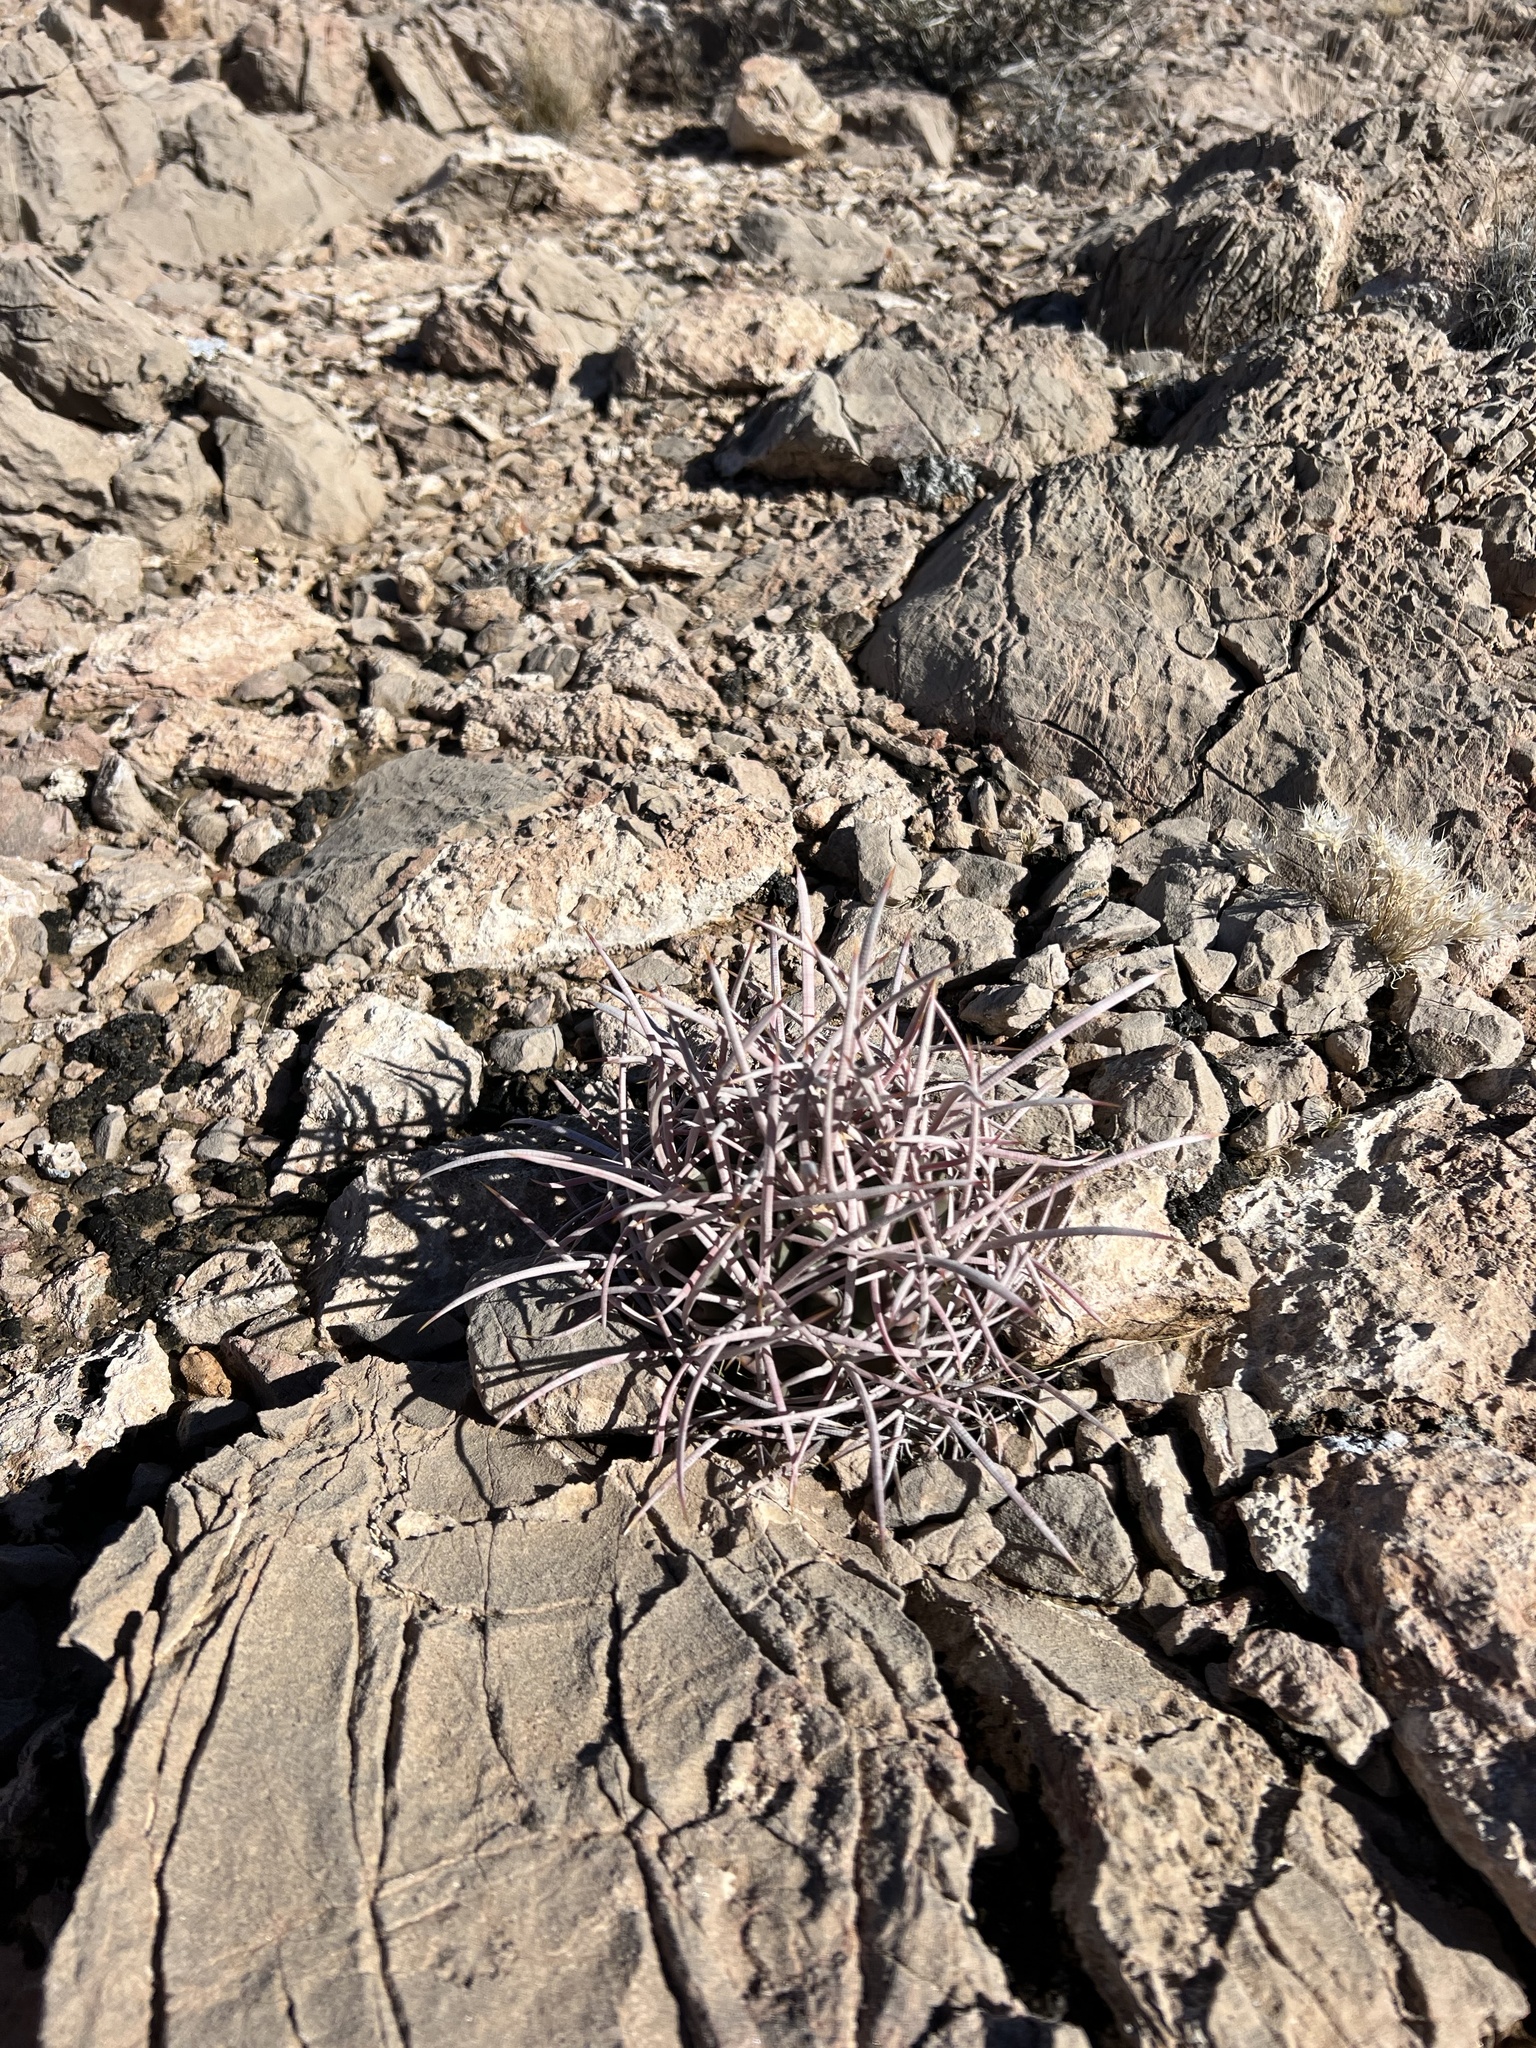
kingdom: Plantae
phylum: Tracheophyta
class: Magnoliopsida
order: Caryophyllales
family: Cactaceae
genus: Echinocactus
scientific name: Echinocactus polycephalus
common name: Cottontop cactus
